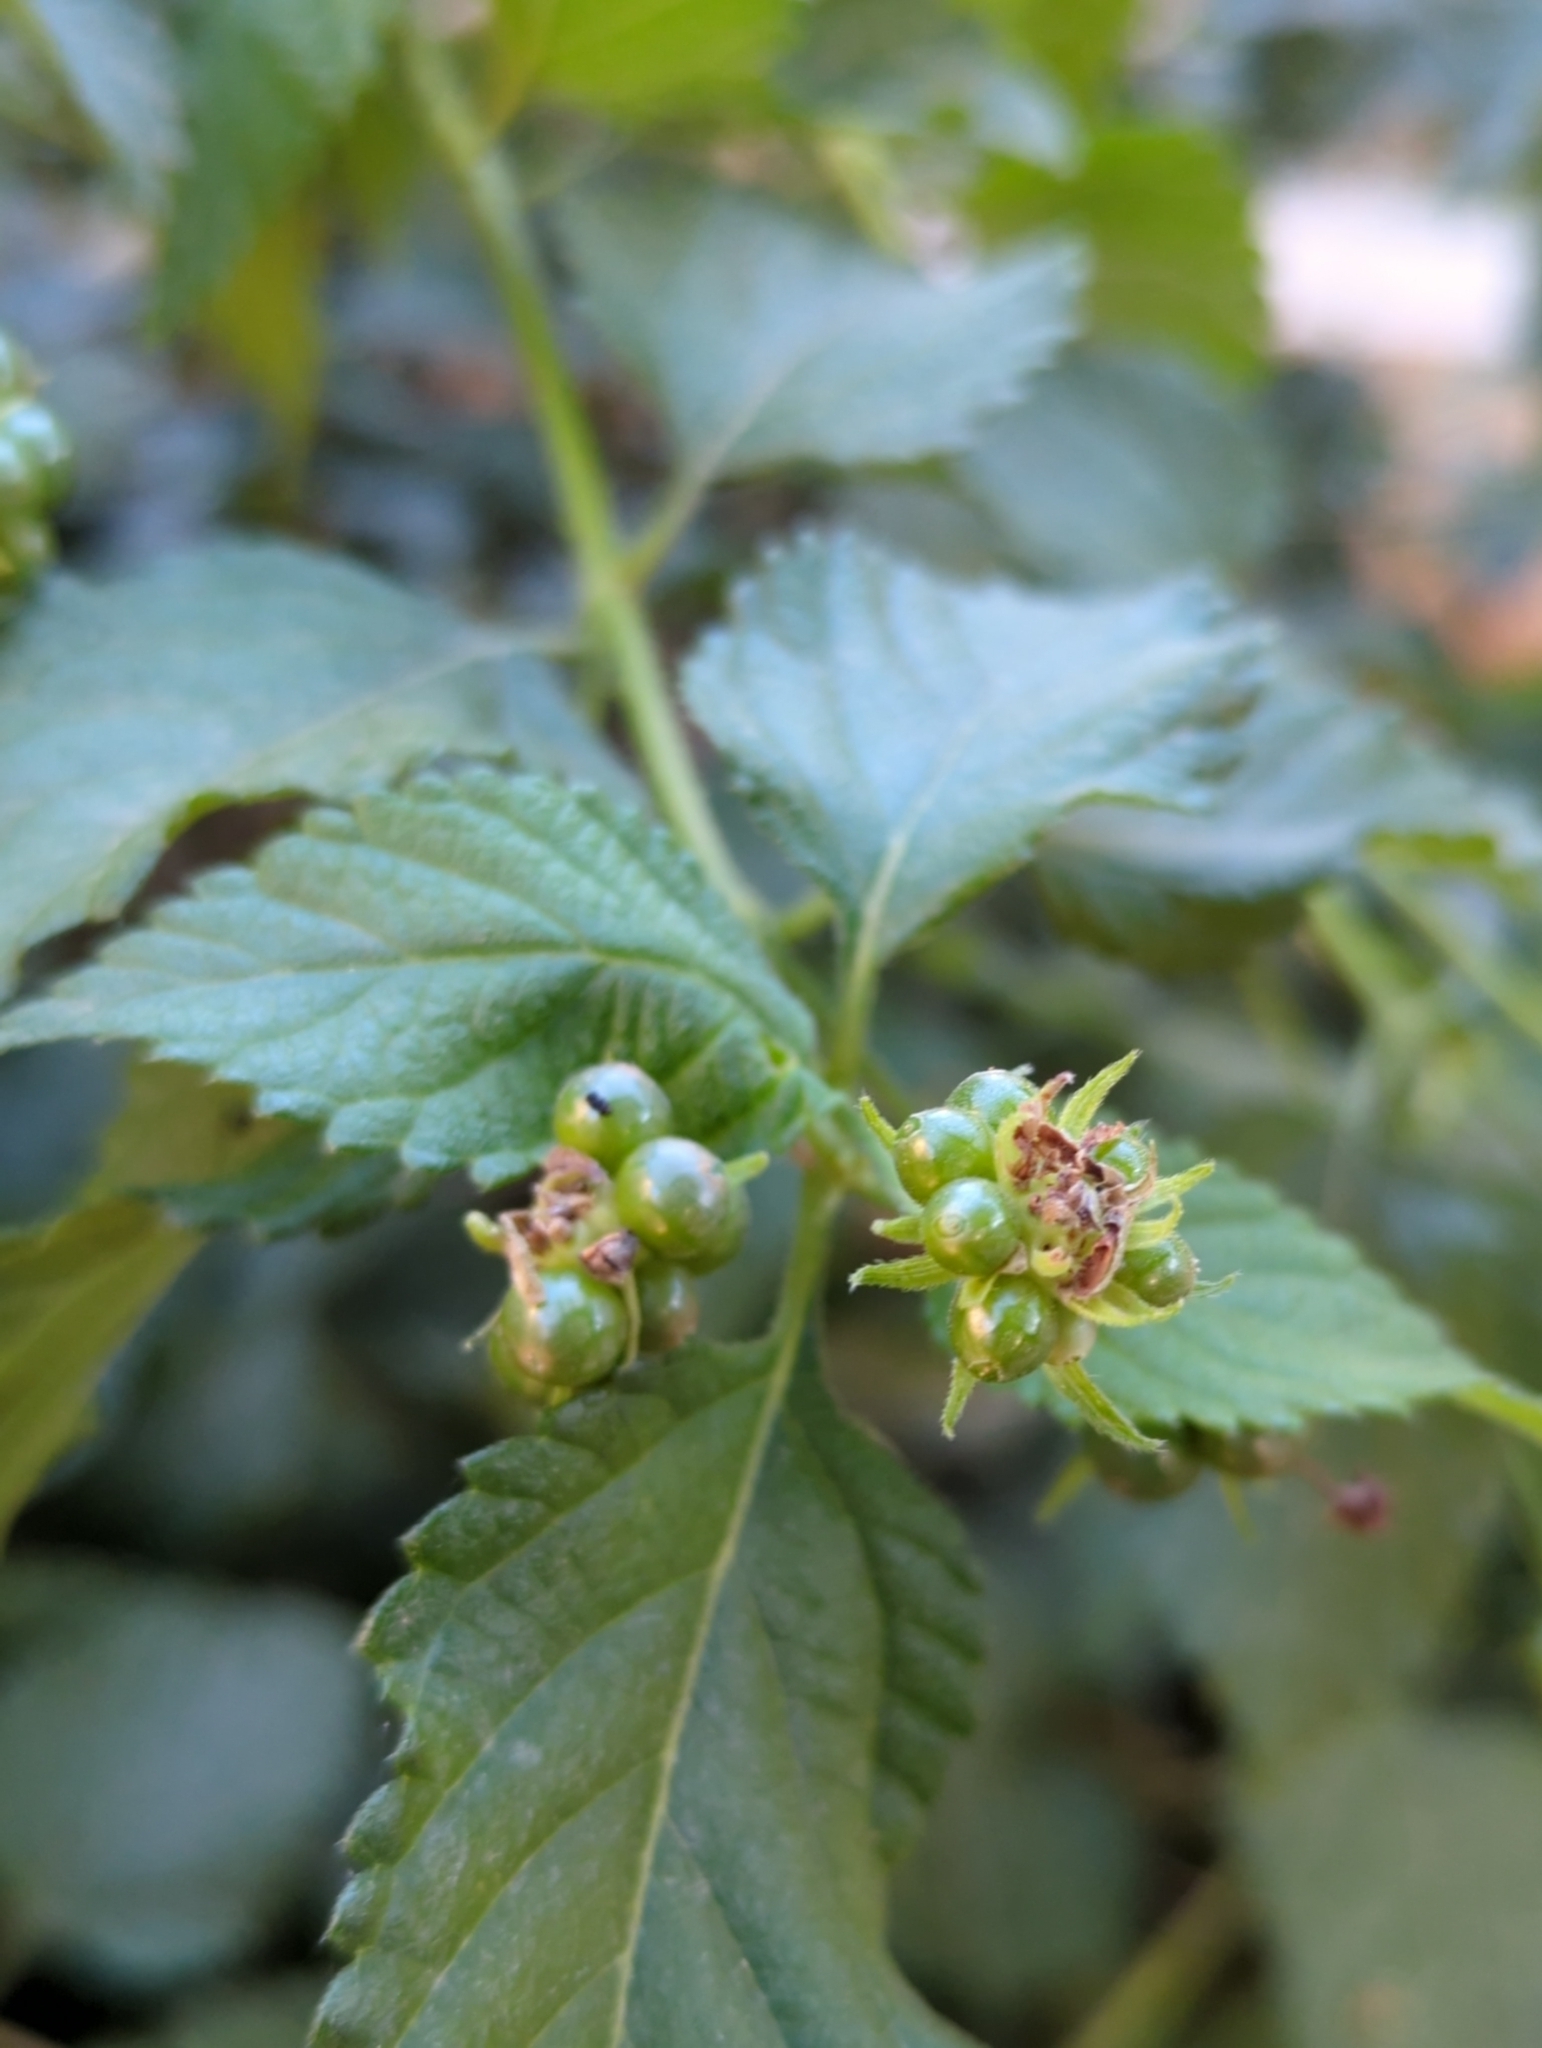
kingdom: Plantae
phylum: Tracheophyta
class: Magnoliopsida
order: Lamiales
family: Verbenaceae
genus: Lantana
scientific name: Lantana camara
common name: Lantana
